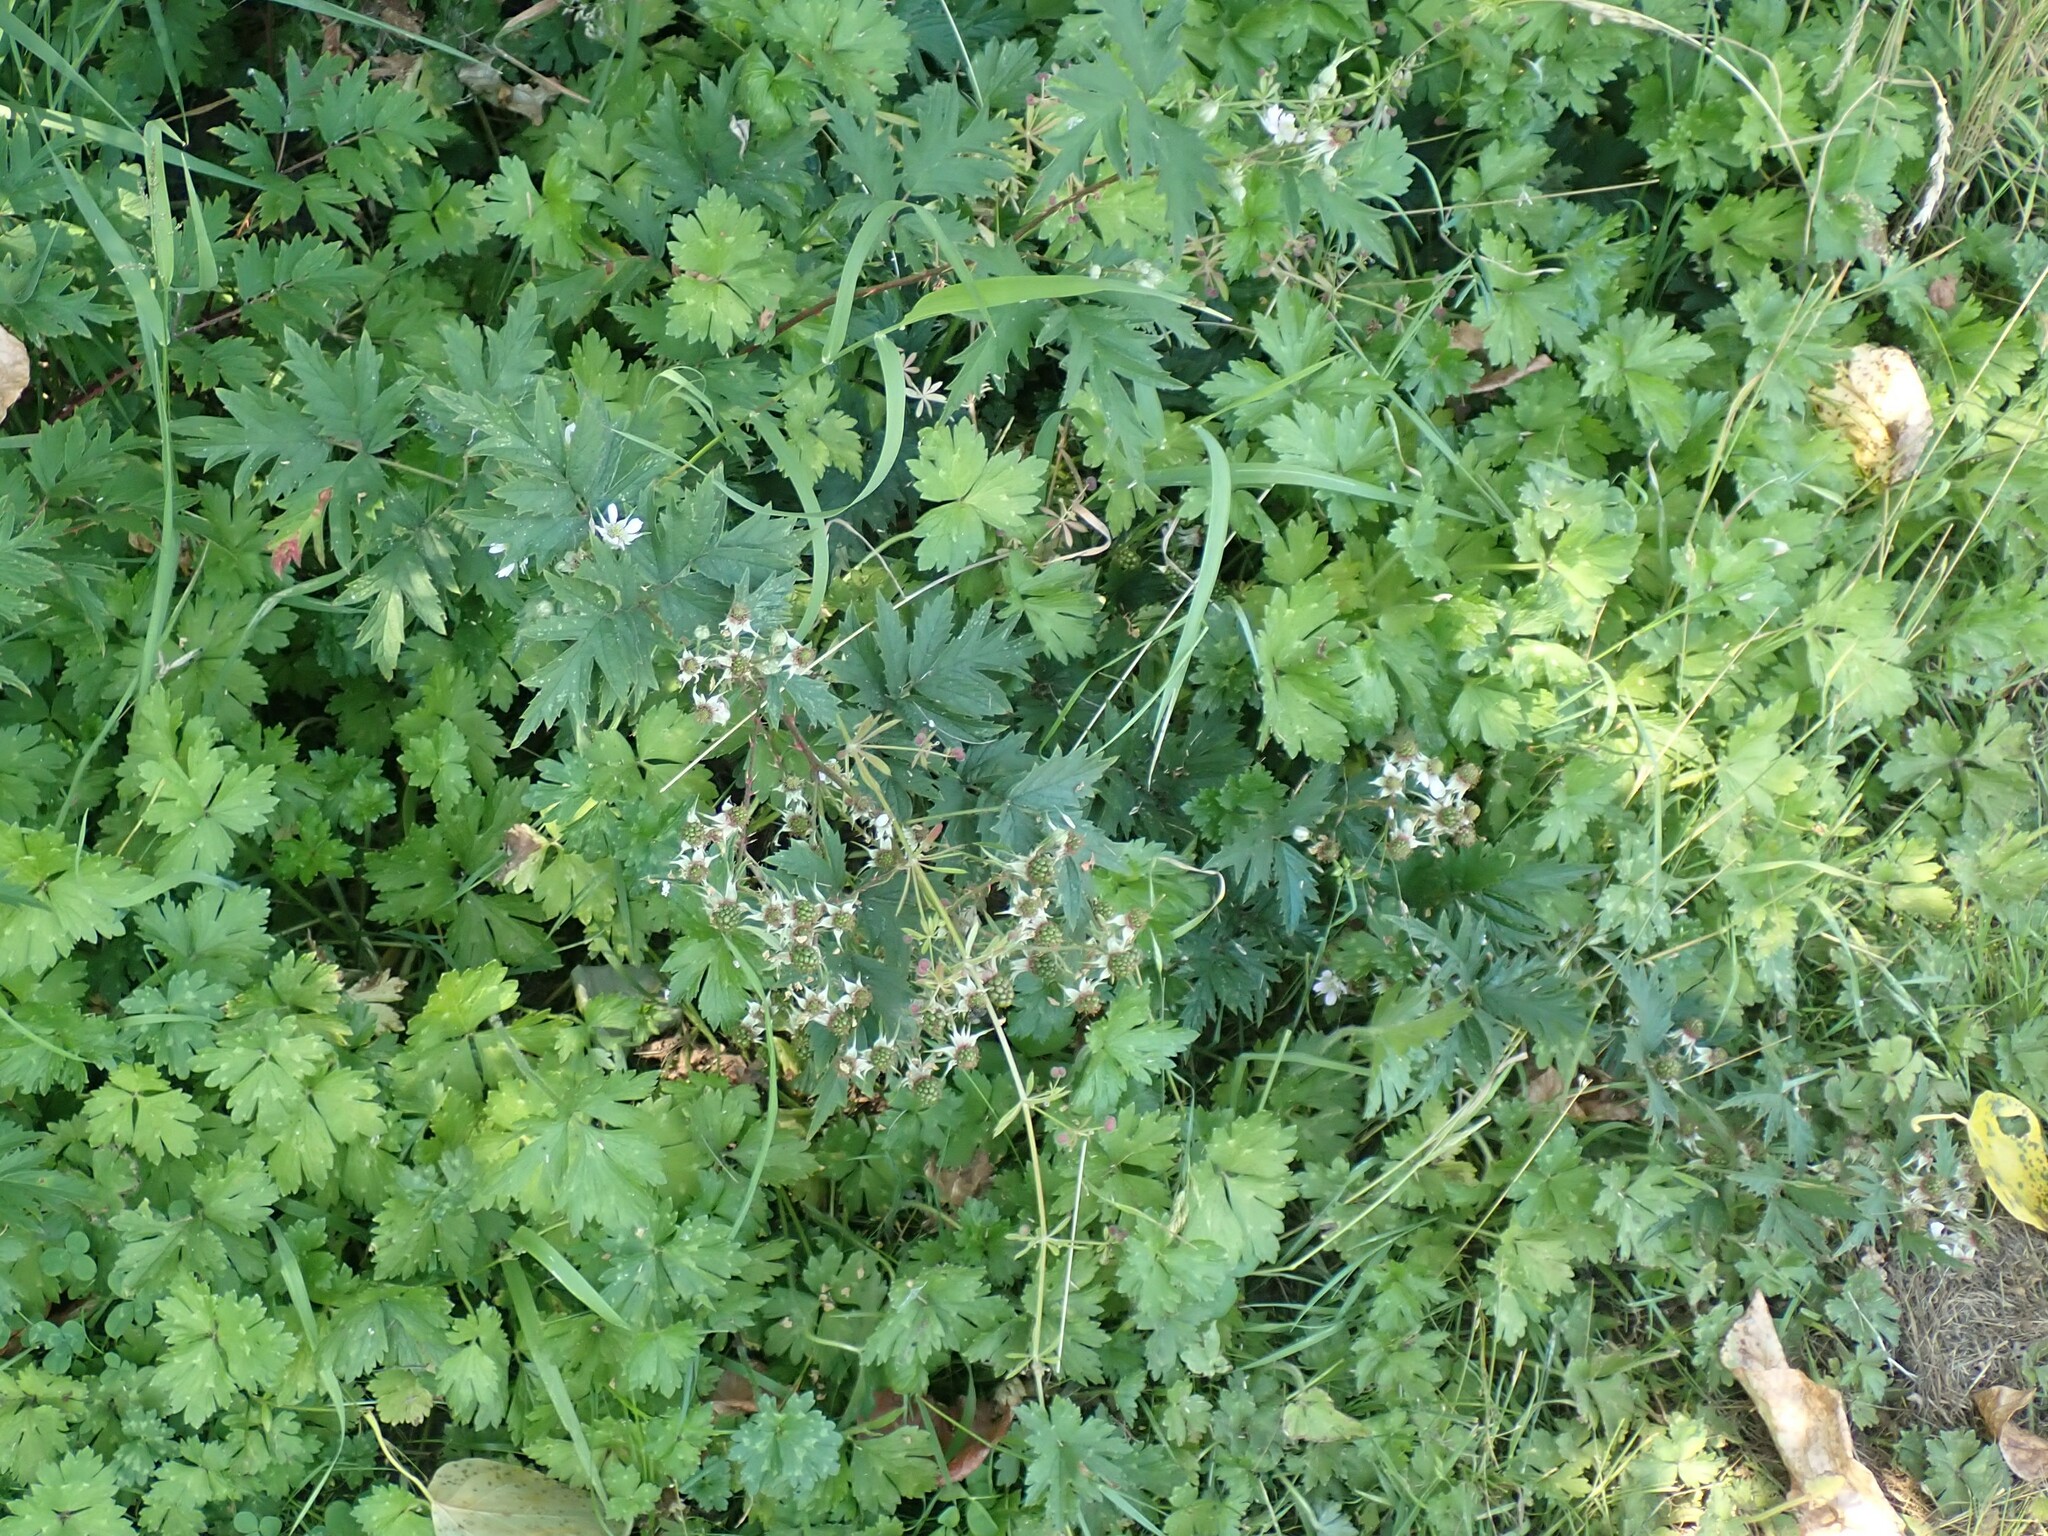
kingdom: Plantae
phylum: Tracheophyta
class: Magnoliopsida
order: Rosales
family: Rosaceae
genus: Rubus
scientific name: Rubus laciniatus
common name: Evergreen blackberry
